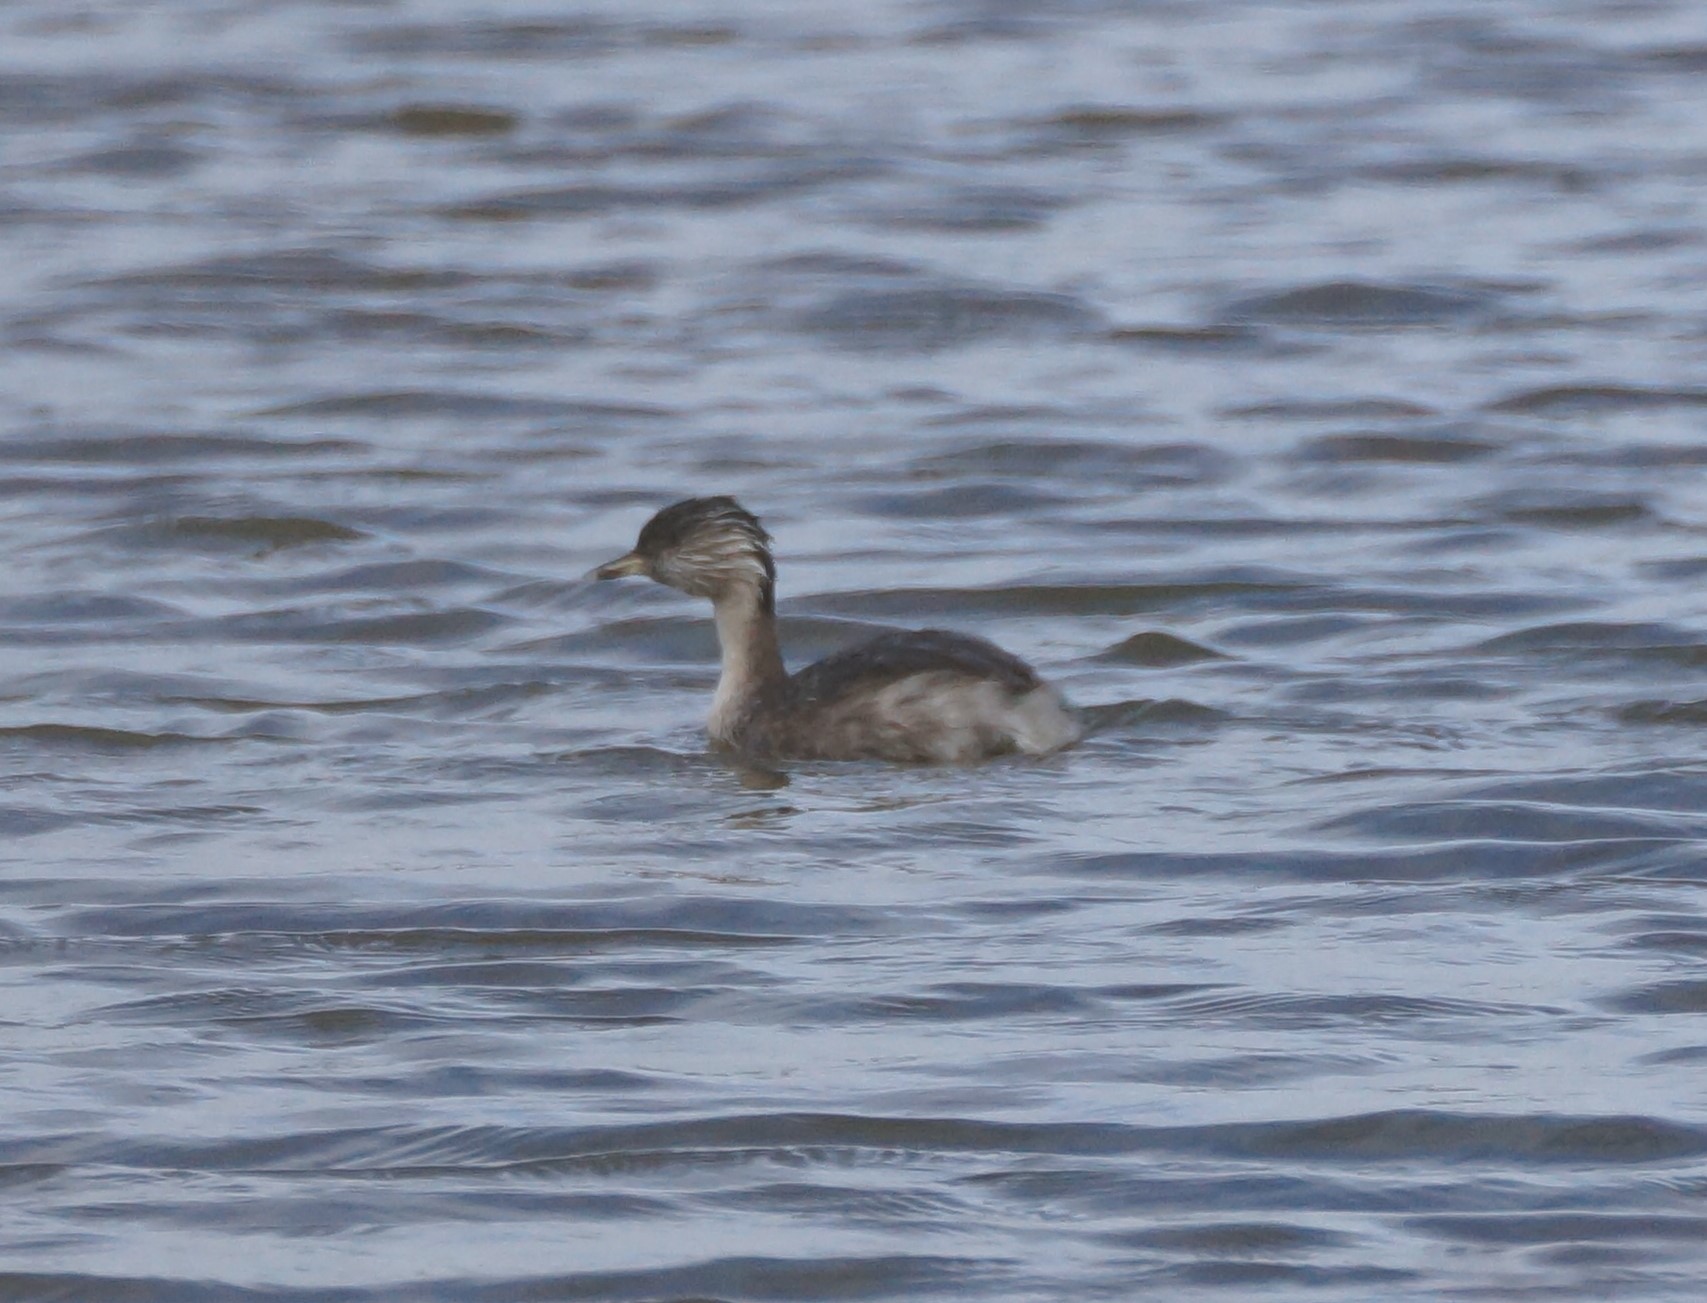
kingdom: Animalia
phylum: Chordata
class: Aves
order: Podicipediformes
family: Podicipedidae
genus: Poliocephalus
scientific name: Poliocephalus poliocephalus
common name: Hoary-headed grebe
